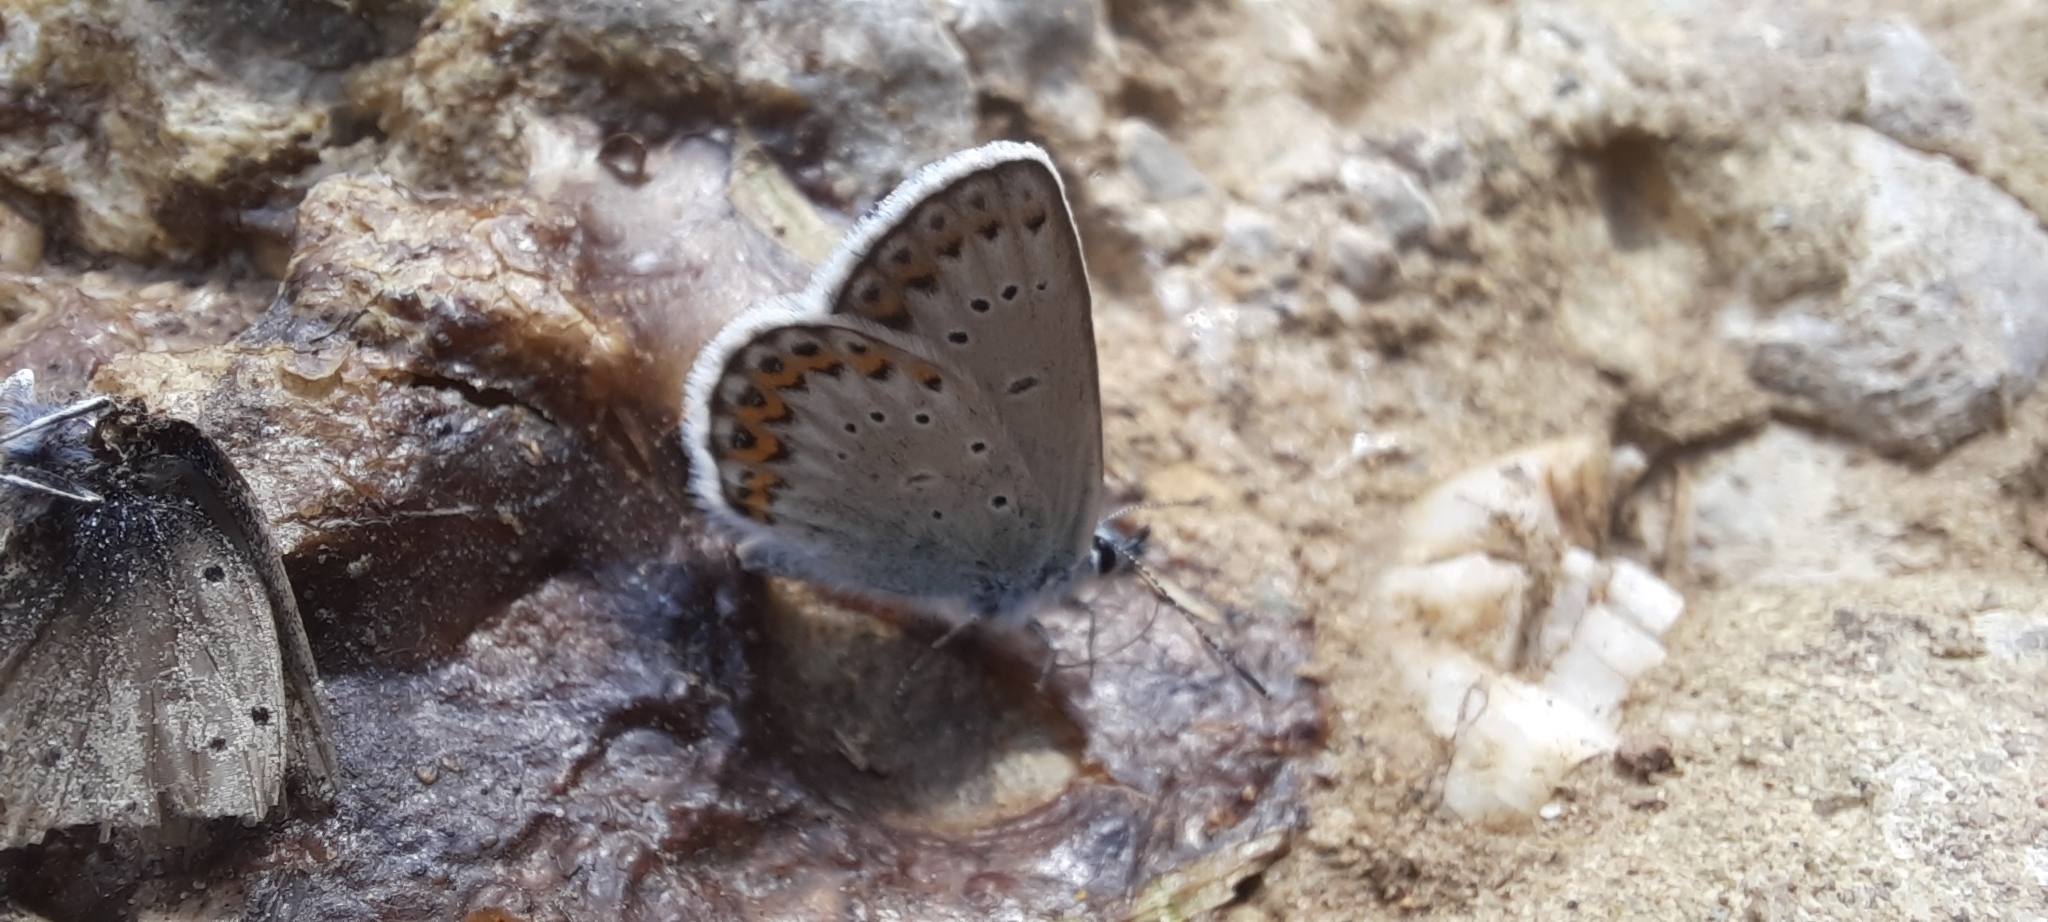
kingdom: Animalia
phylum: Arthropoda
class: Insecta
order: Lepidoptera
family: Lycaenidae
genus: Lycaeides
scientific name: Lycaeides idas
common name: Northern blue
